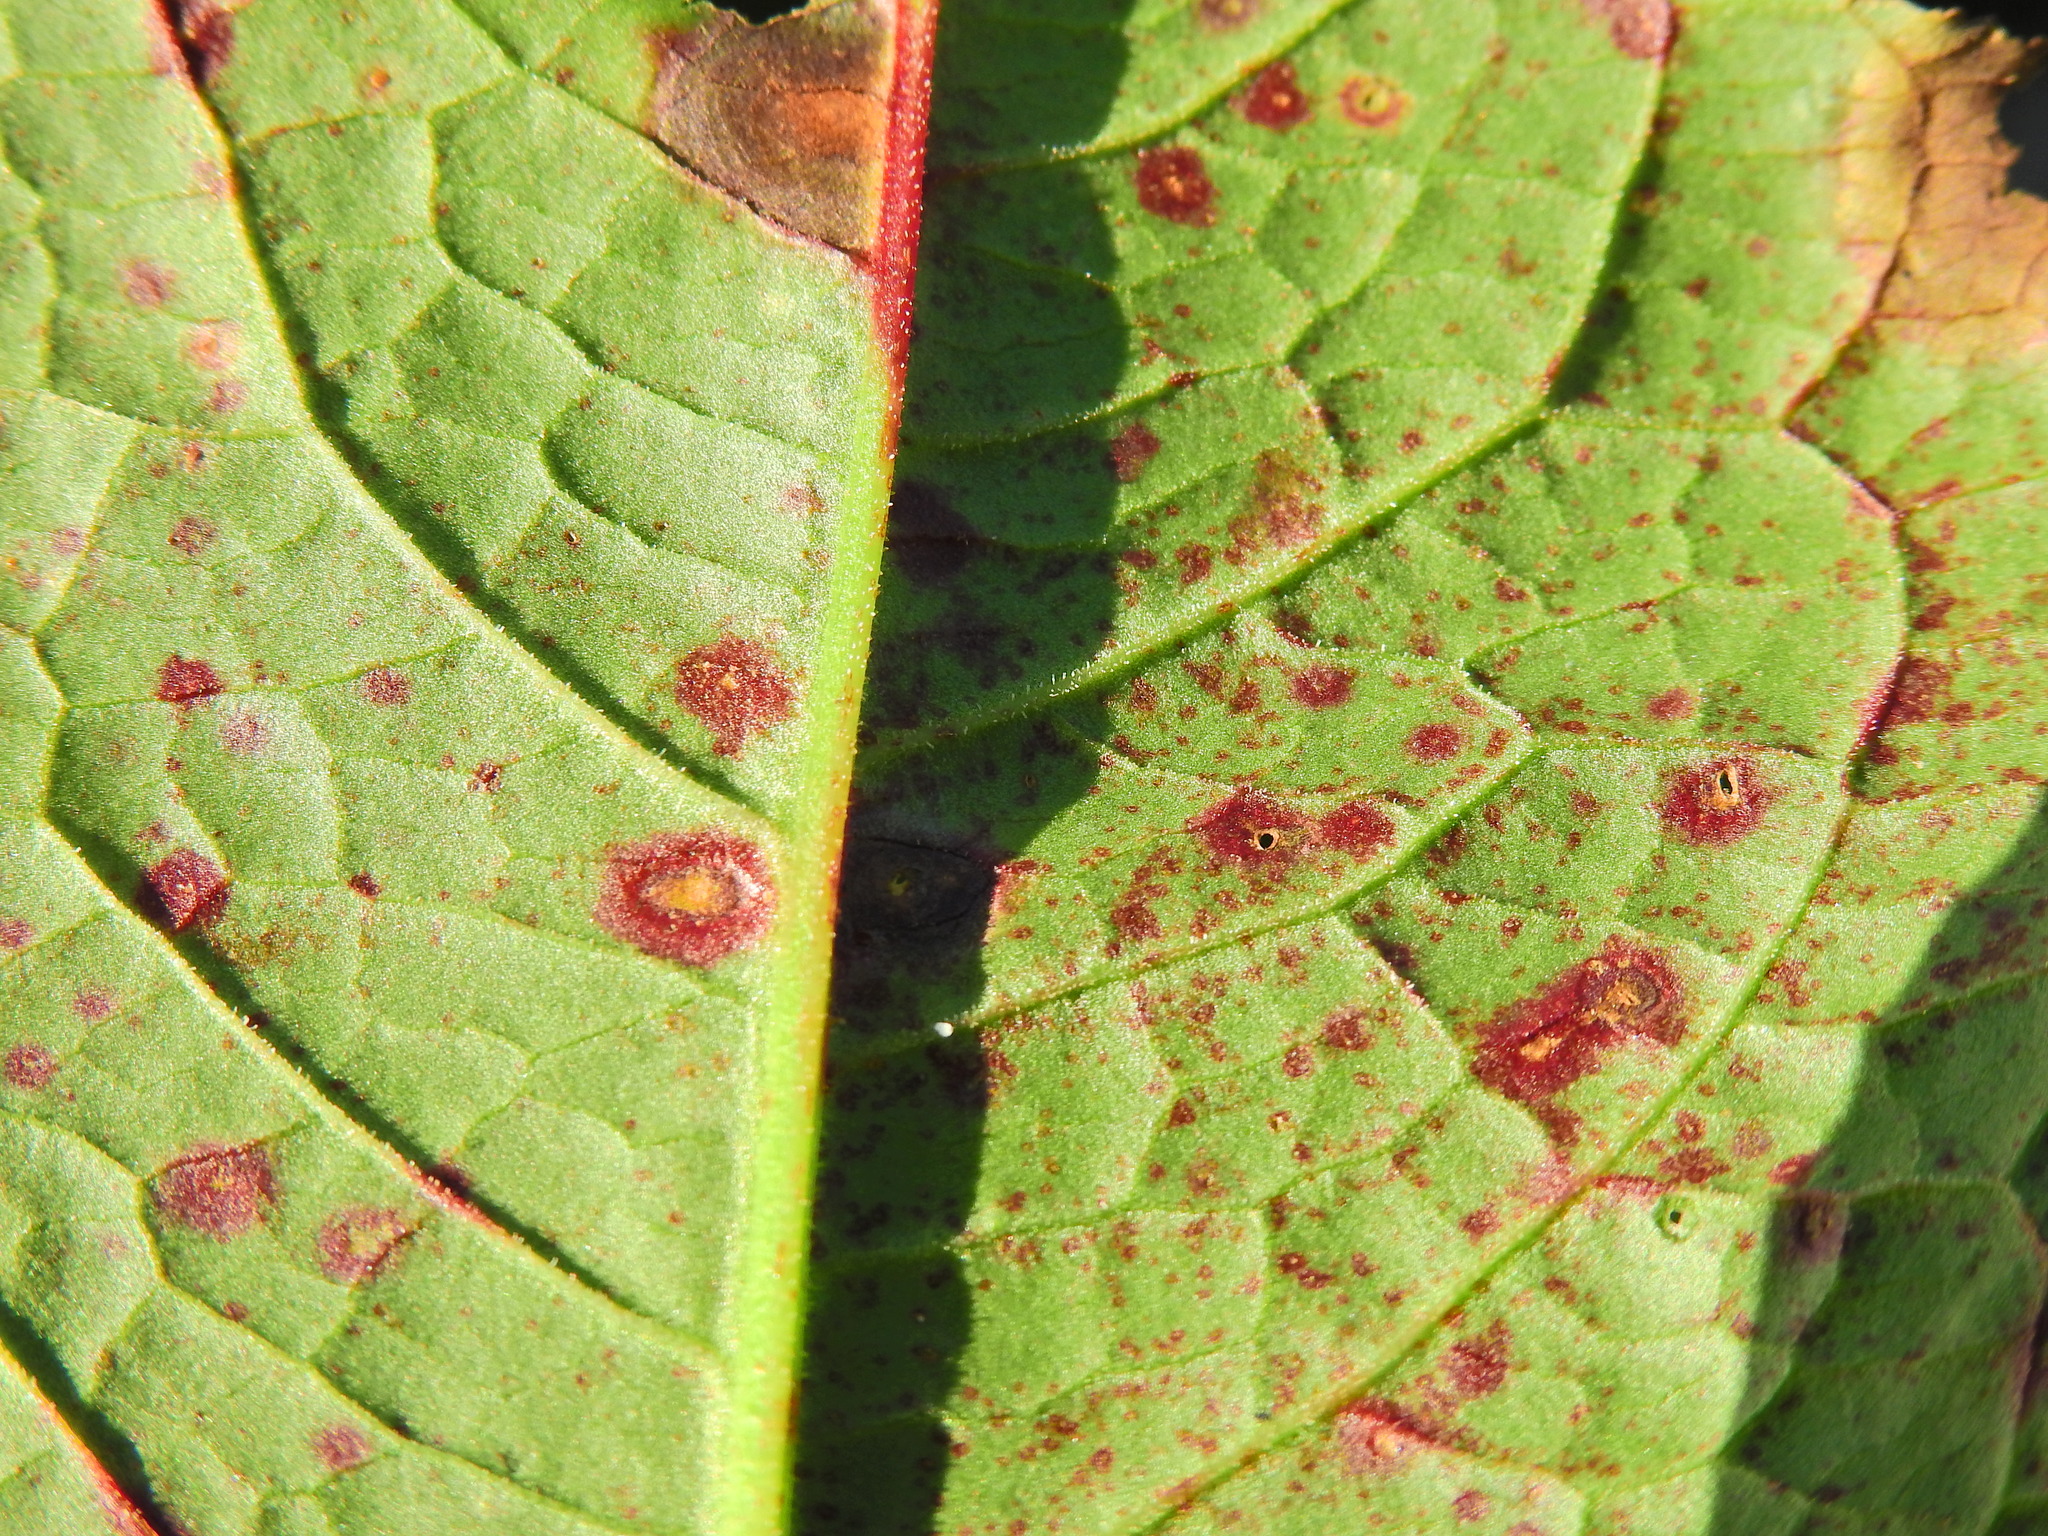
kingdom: Fungi
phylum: Ascomycota
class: Dothideomycetes
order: Mycosphaerellales
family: Mycosphaerellaceae
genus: Ramularia
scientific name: Ramularia rubella
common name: Red dock spot
